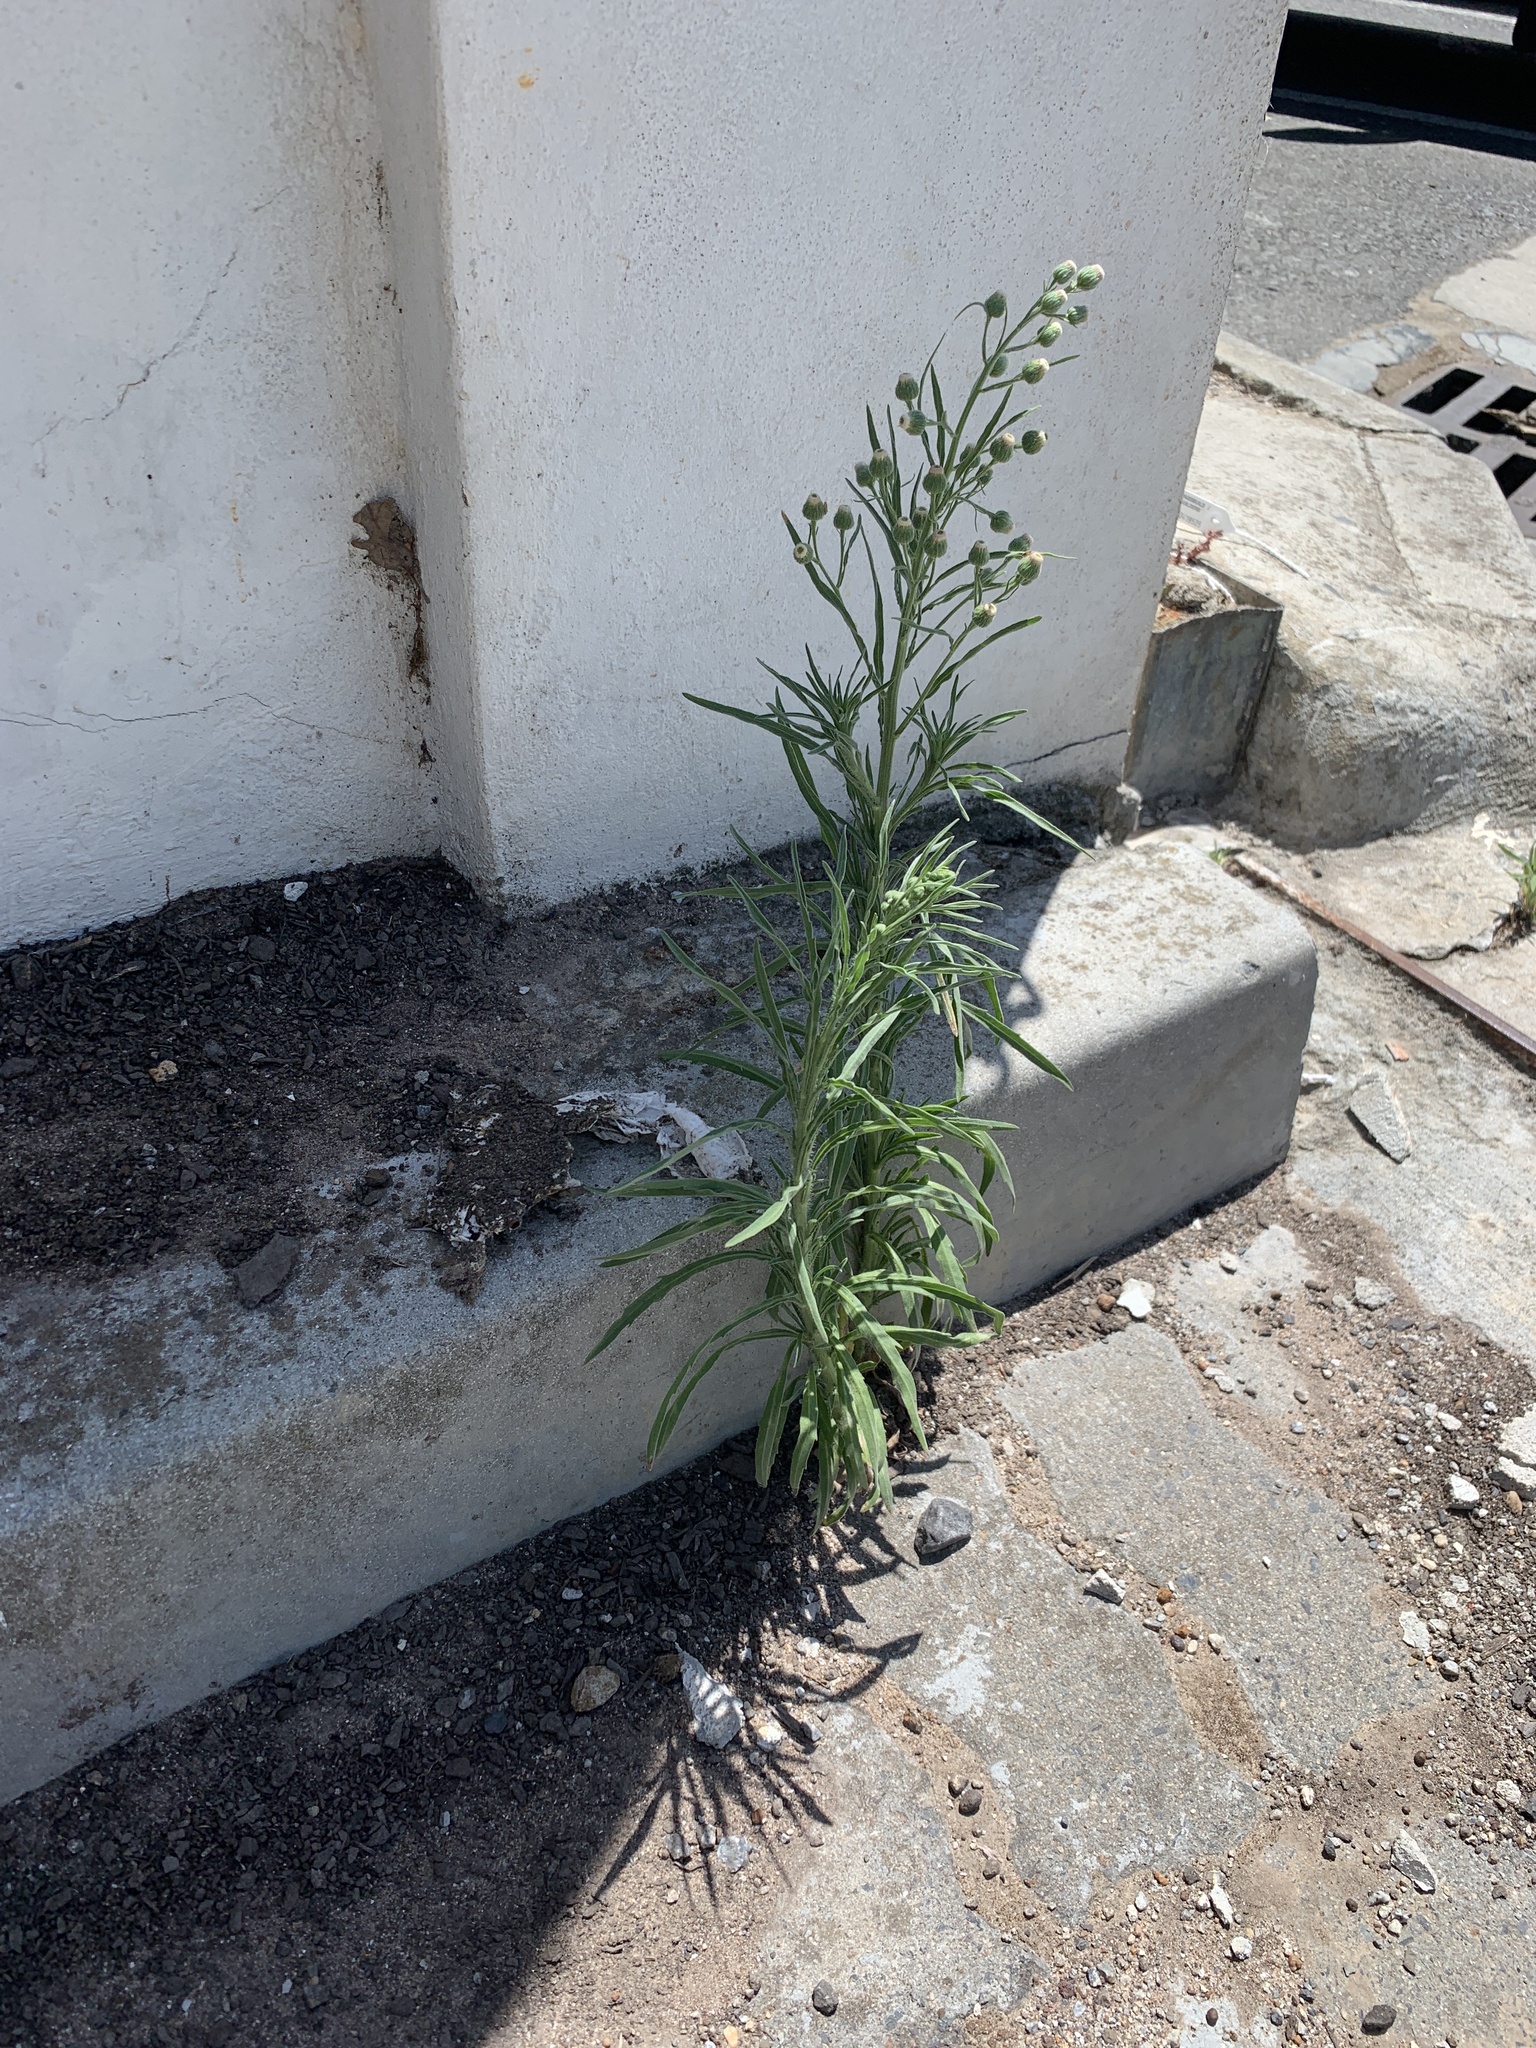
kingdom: Plantae
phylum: Tracheophyta
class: Magnoliopsida
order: Asterales
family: Asteraceae
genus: Erigeron
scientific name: Erigeron bonariensis
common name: Argentine fleabane
